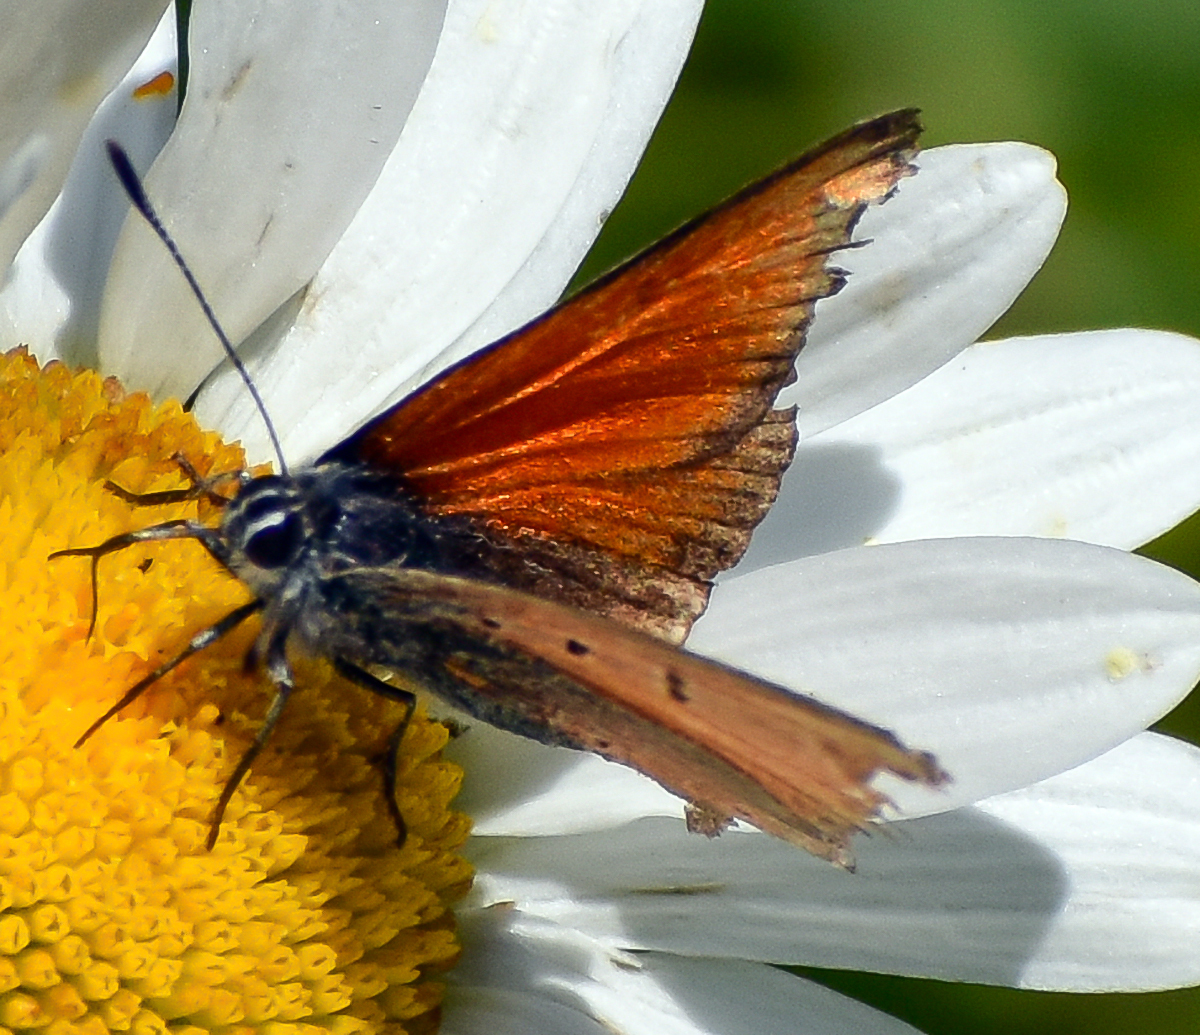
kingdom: Animalia
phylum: Arthropoda
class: Insecta
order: Lepidoptera
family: Lycaenidae
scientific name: Lycaenidae
